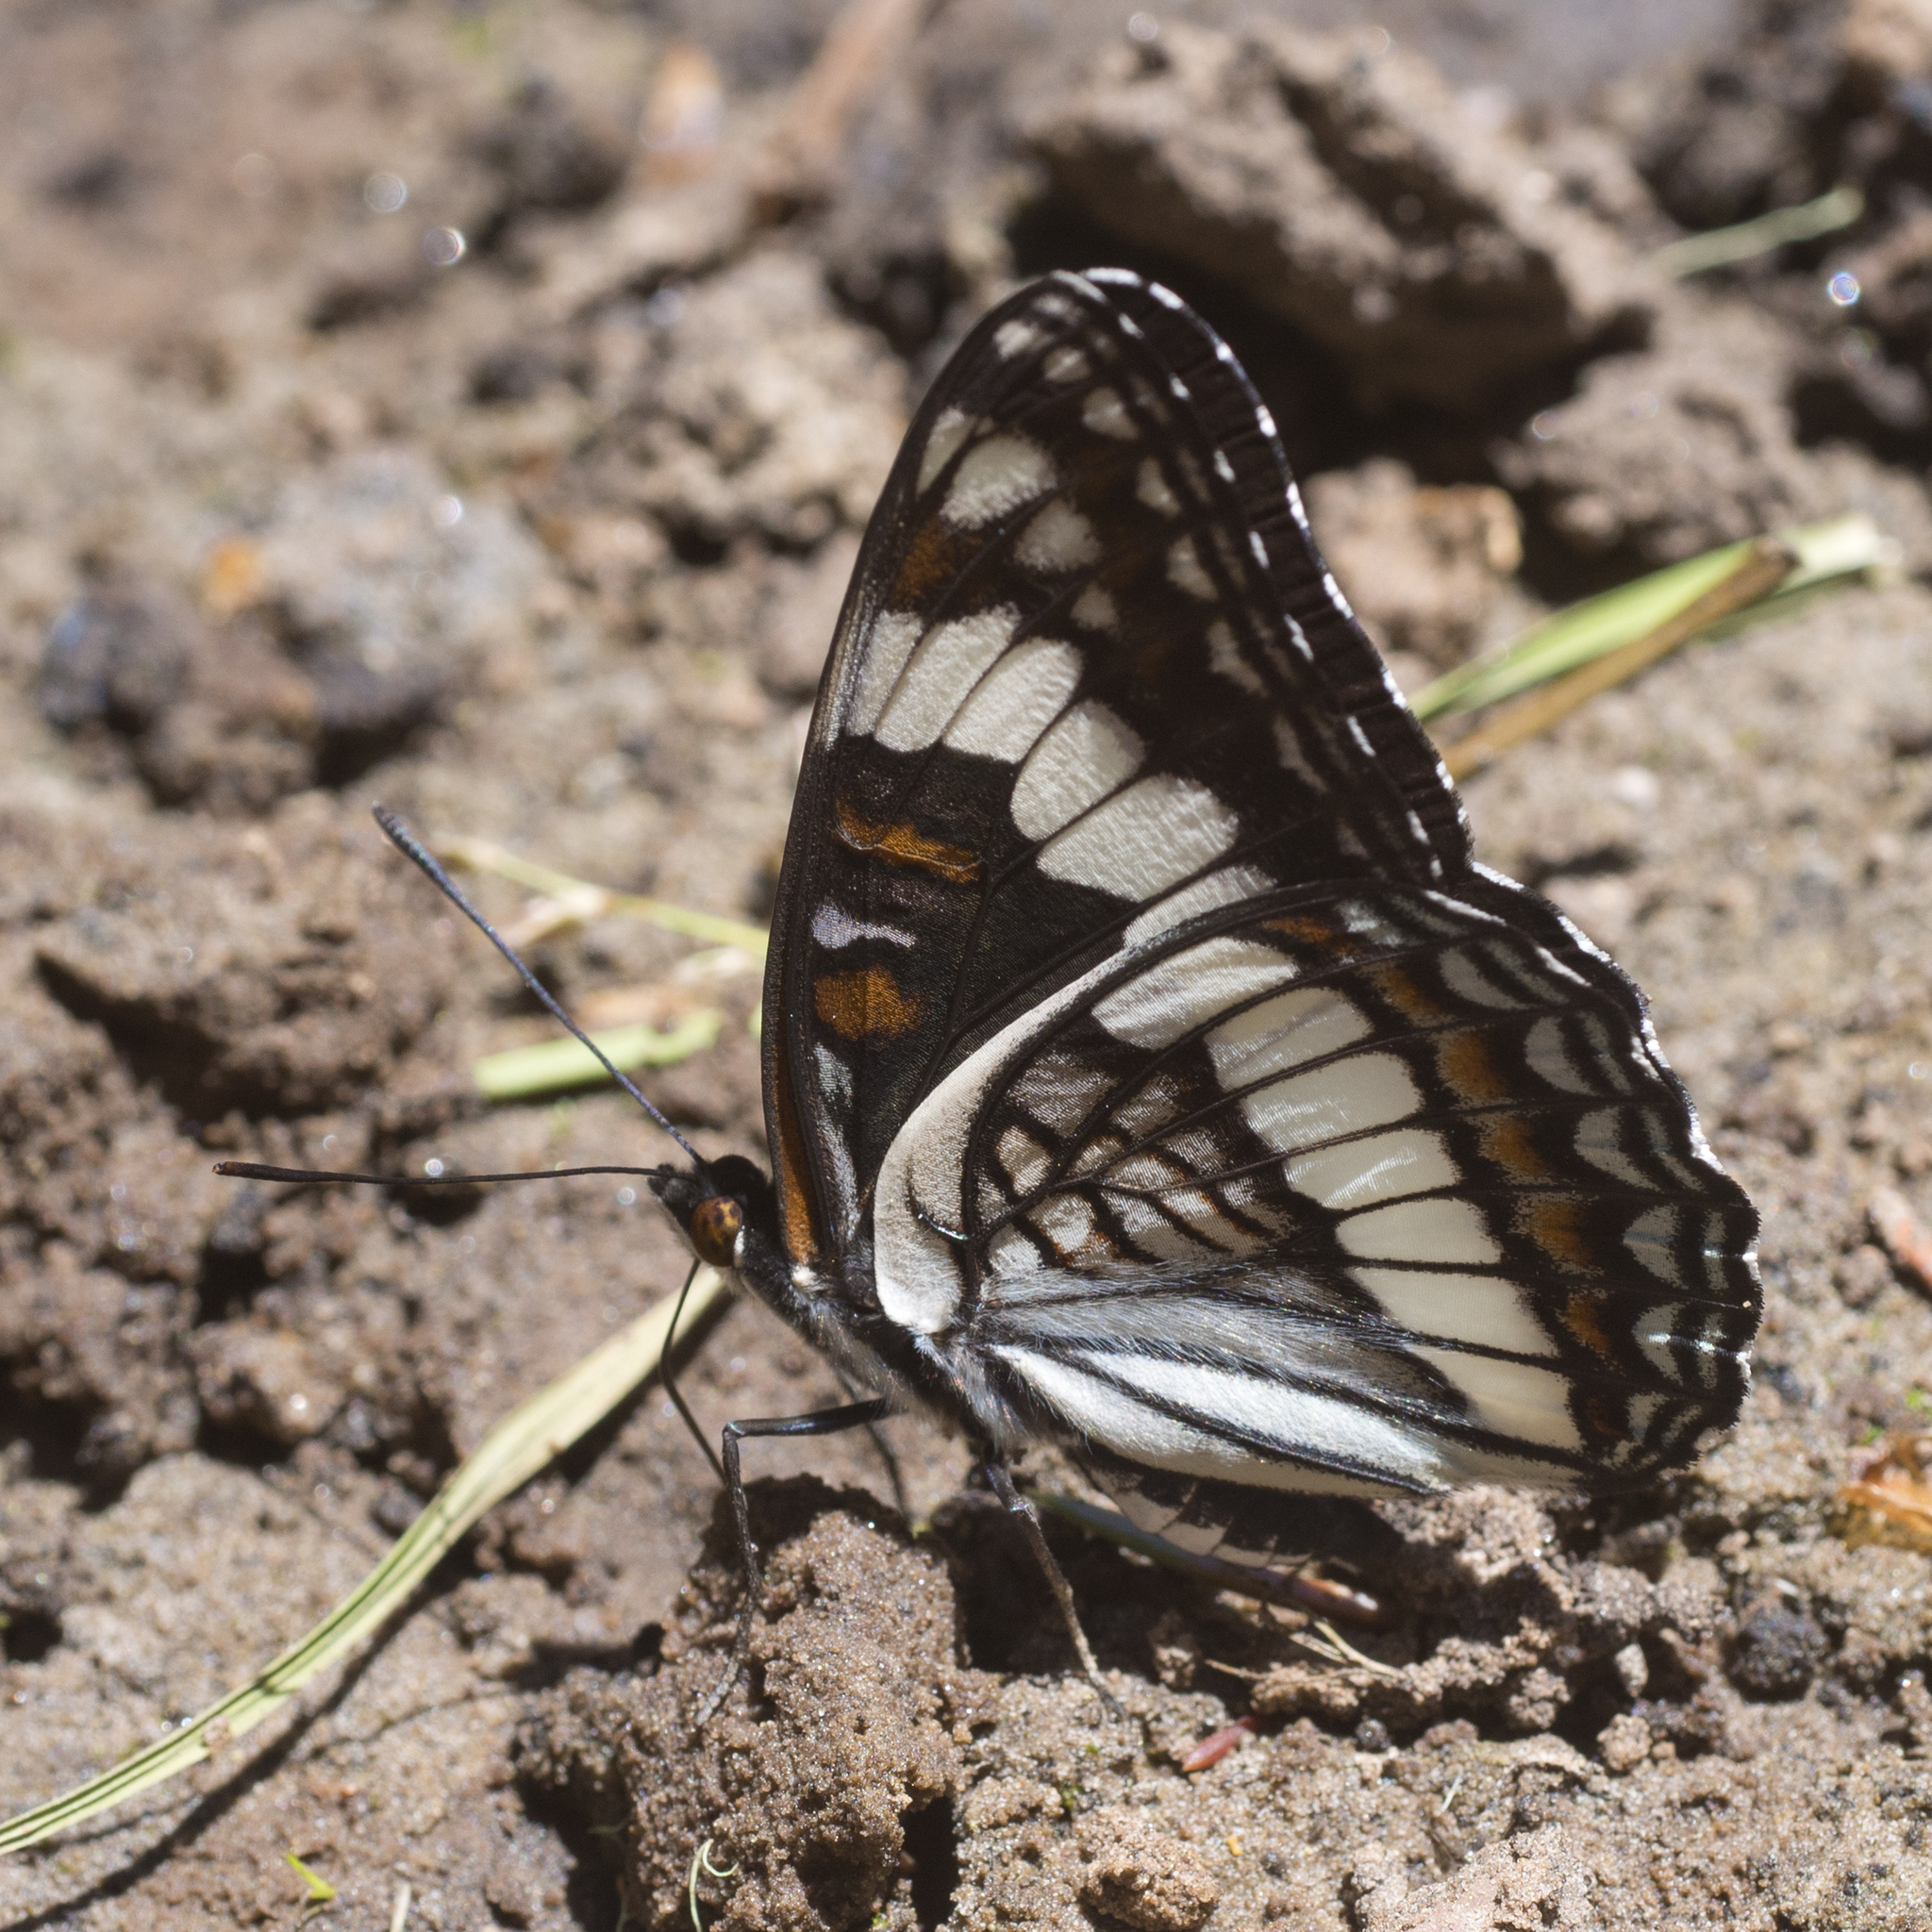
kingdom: Animalia
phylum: Arthropoda
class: Insecta
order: Lepidoptera
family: Nymphalidae
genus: Limenitis
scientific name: Limenitis weidemeyerii
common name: Weidemeyer's admiral
